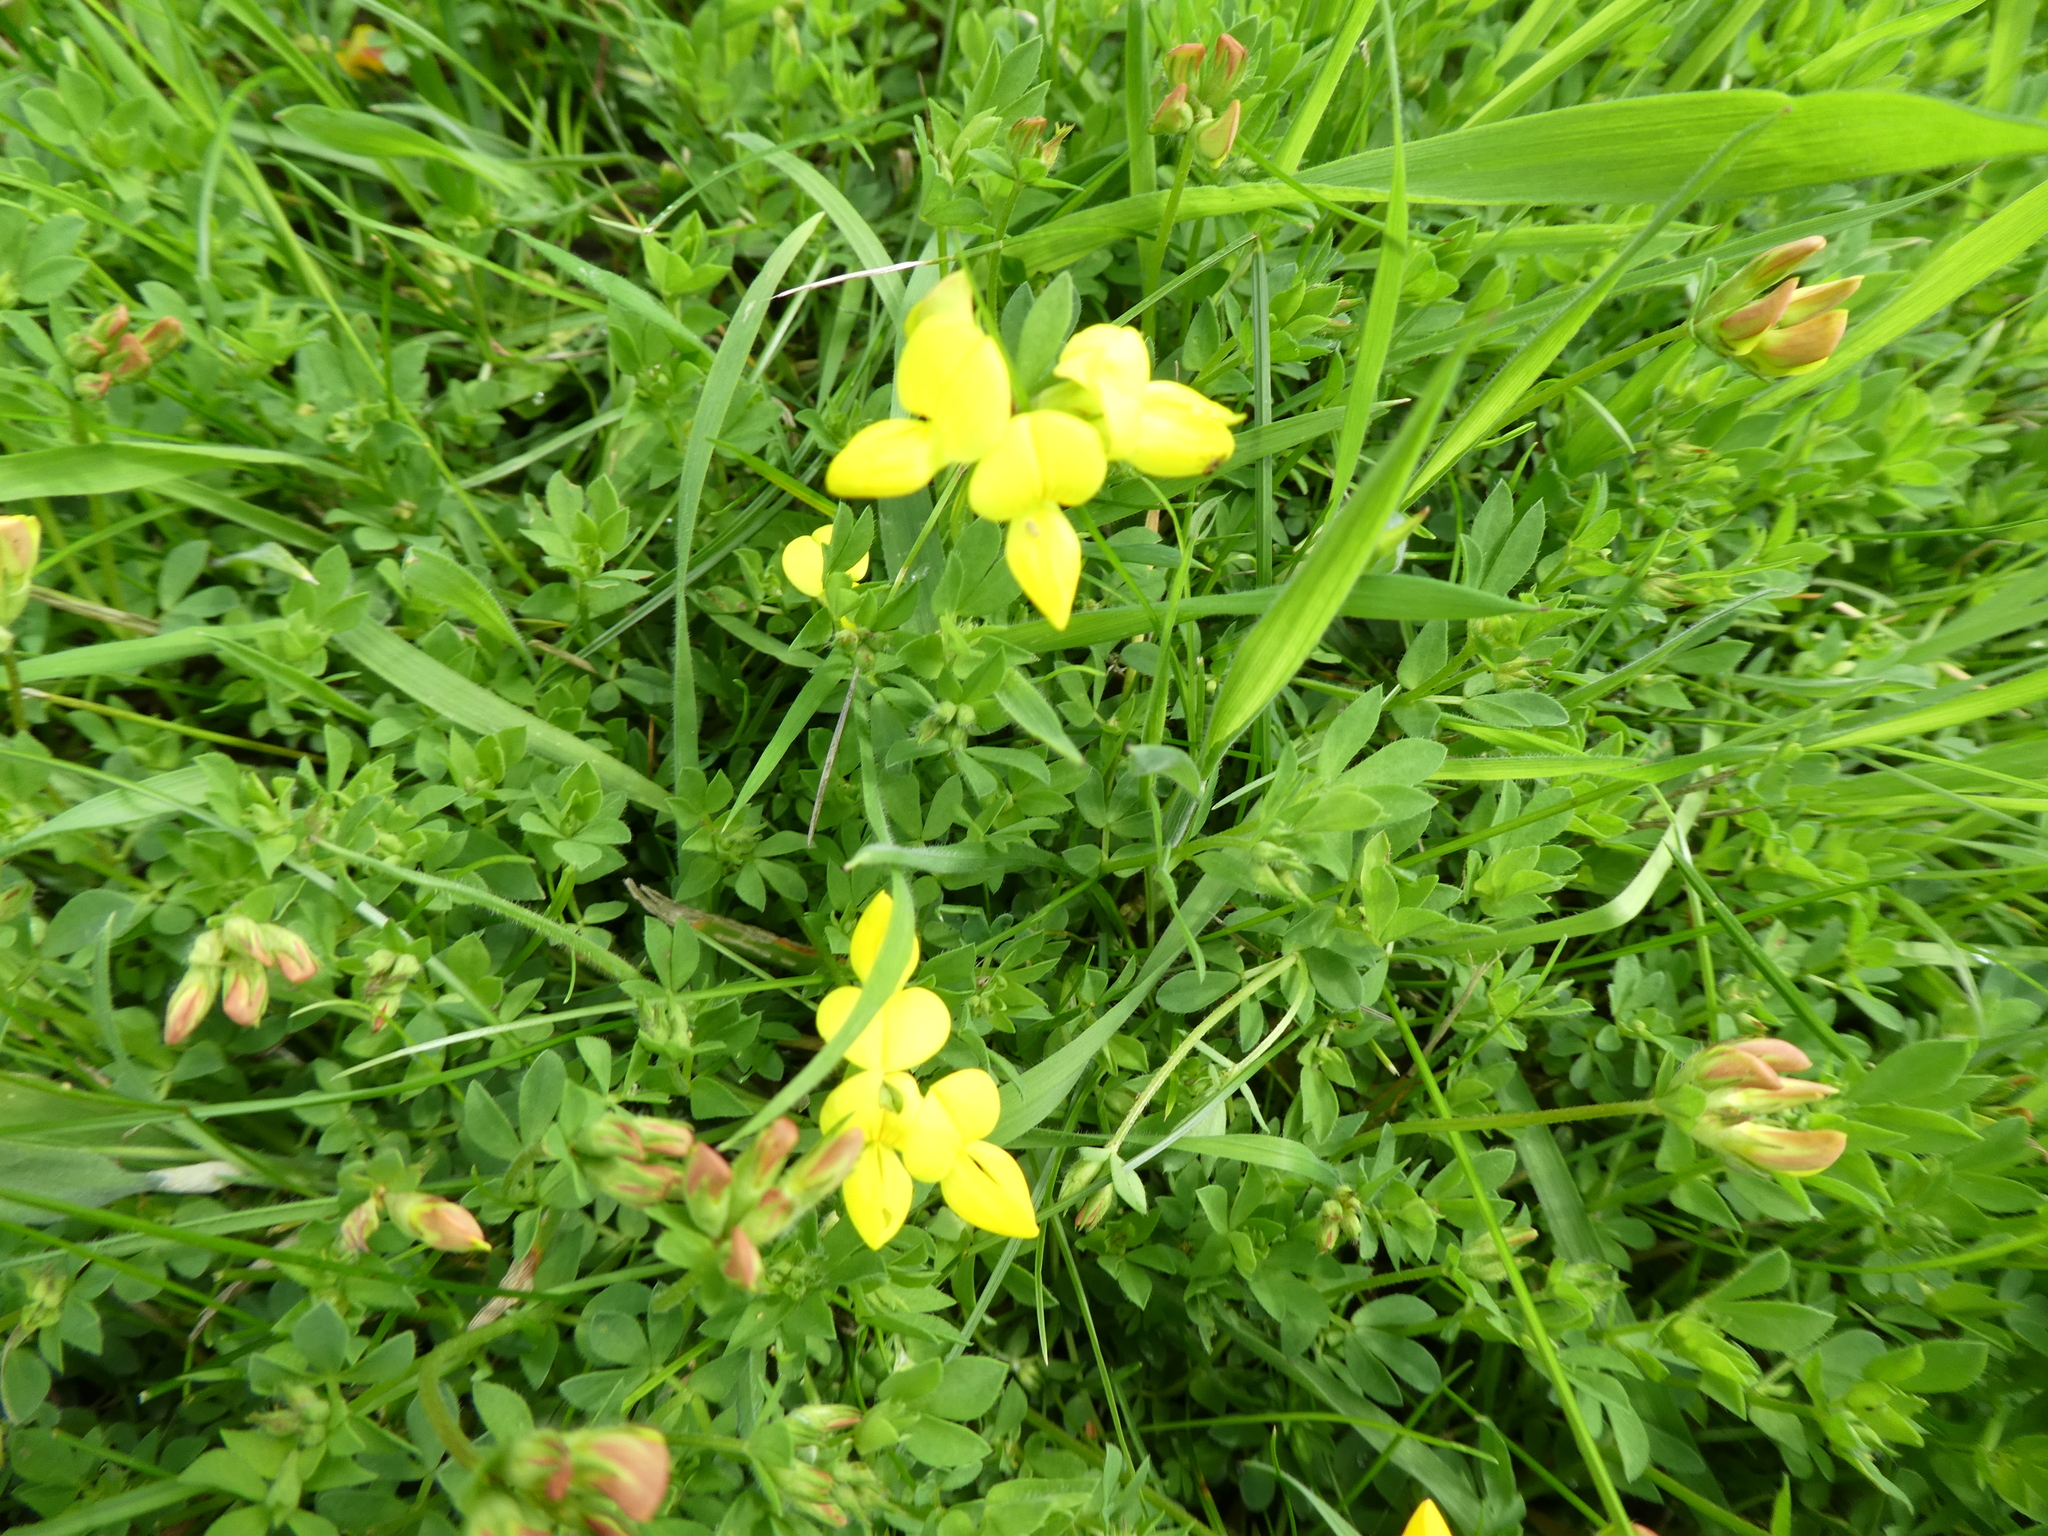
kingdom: Plantae
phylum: Tracheophyta
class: Magnoliopsida
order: Fabales
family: Fabaceae
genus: Lotus
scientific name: Lotus corniculatus
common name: Common bird's-foot-trefoil
